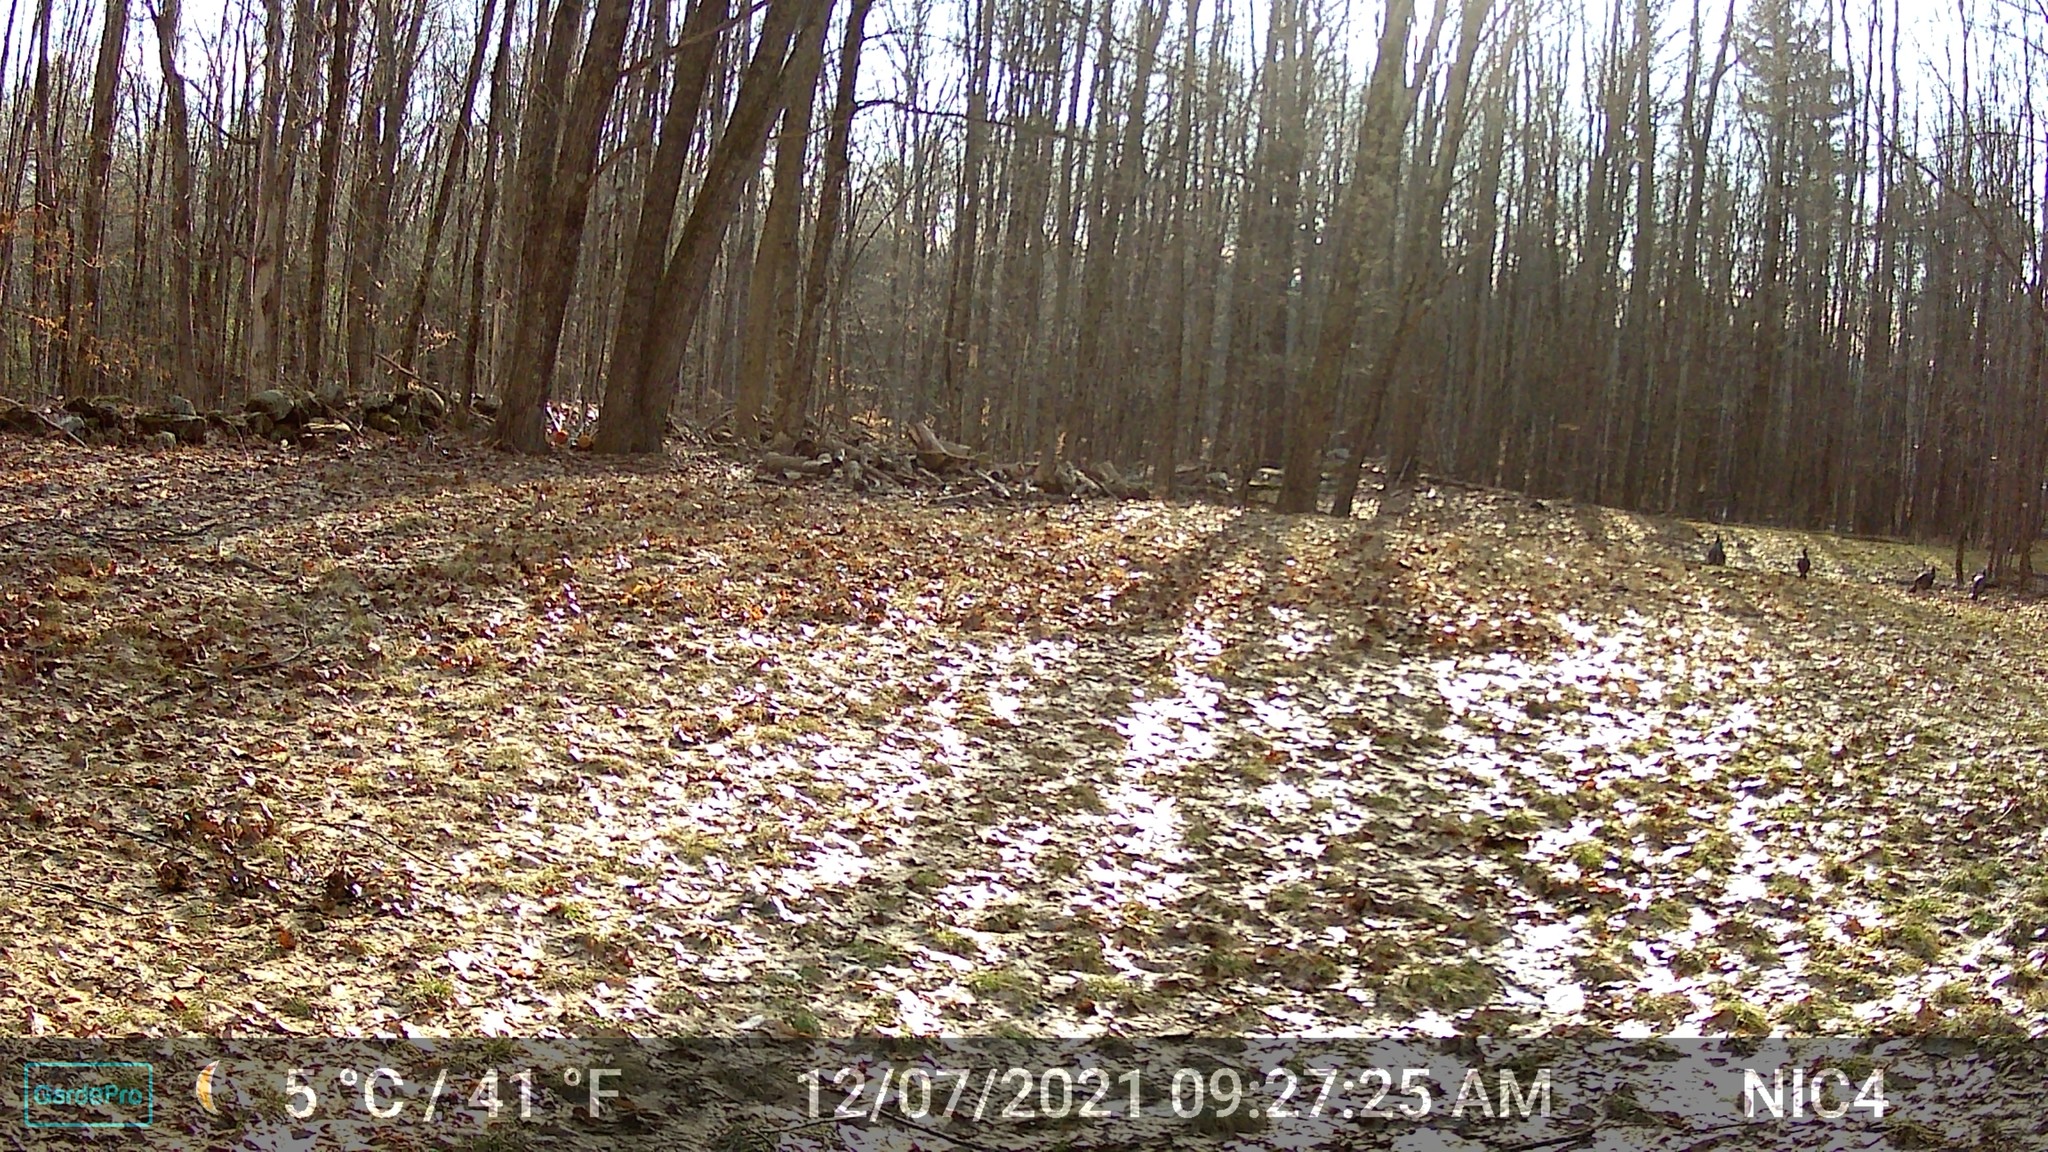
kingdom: Animalia
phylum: Chordata
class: Aves
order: Galliformes
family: Phasianidae
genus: Meleagris
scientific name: Meleagris gallopavo
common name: Wild turkey
